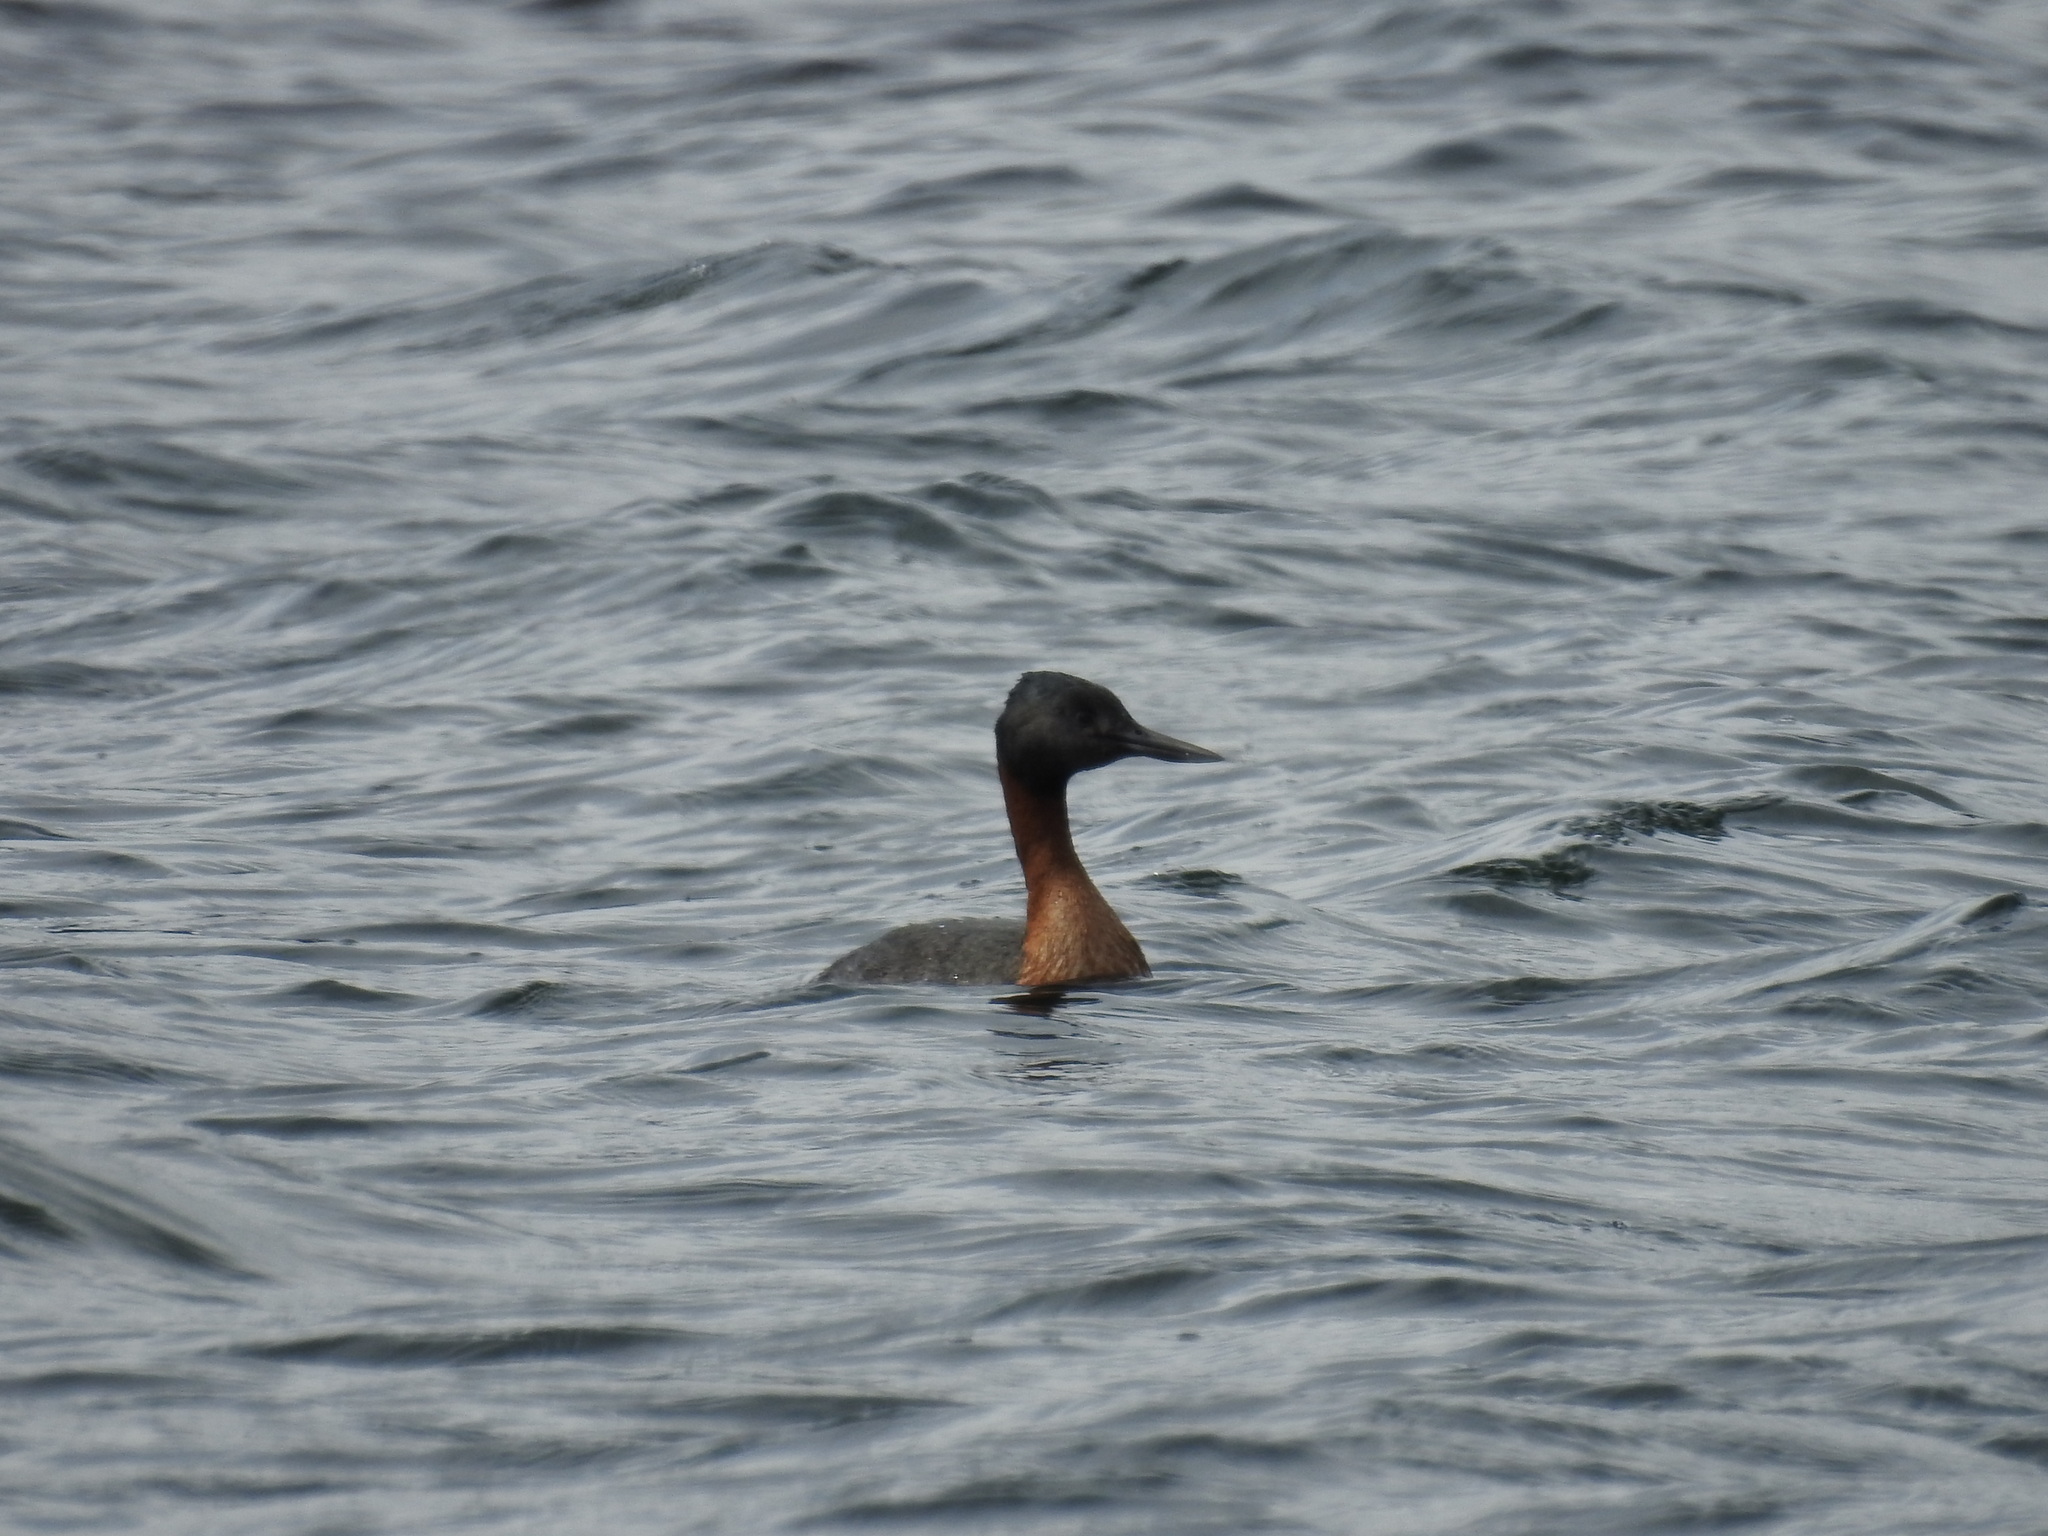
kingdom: Animalia
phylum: Chordata
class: Aves
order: Podicipediformes
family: Podicipedidae
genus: Podiceps
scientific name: Podiceps major
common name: Great grebe
